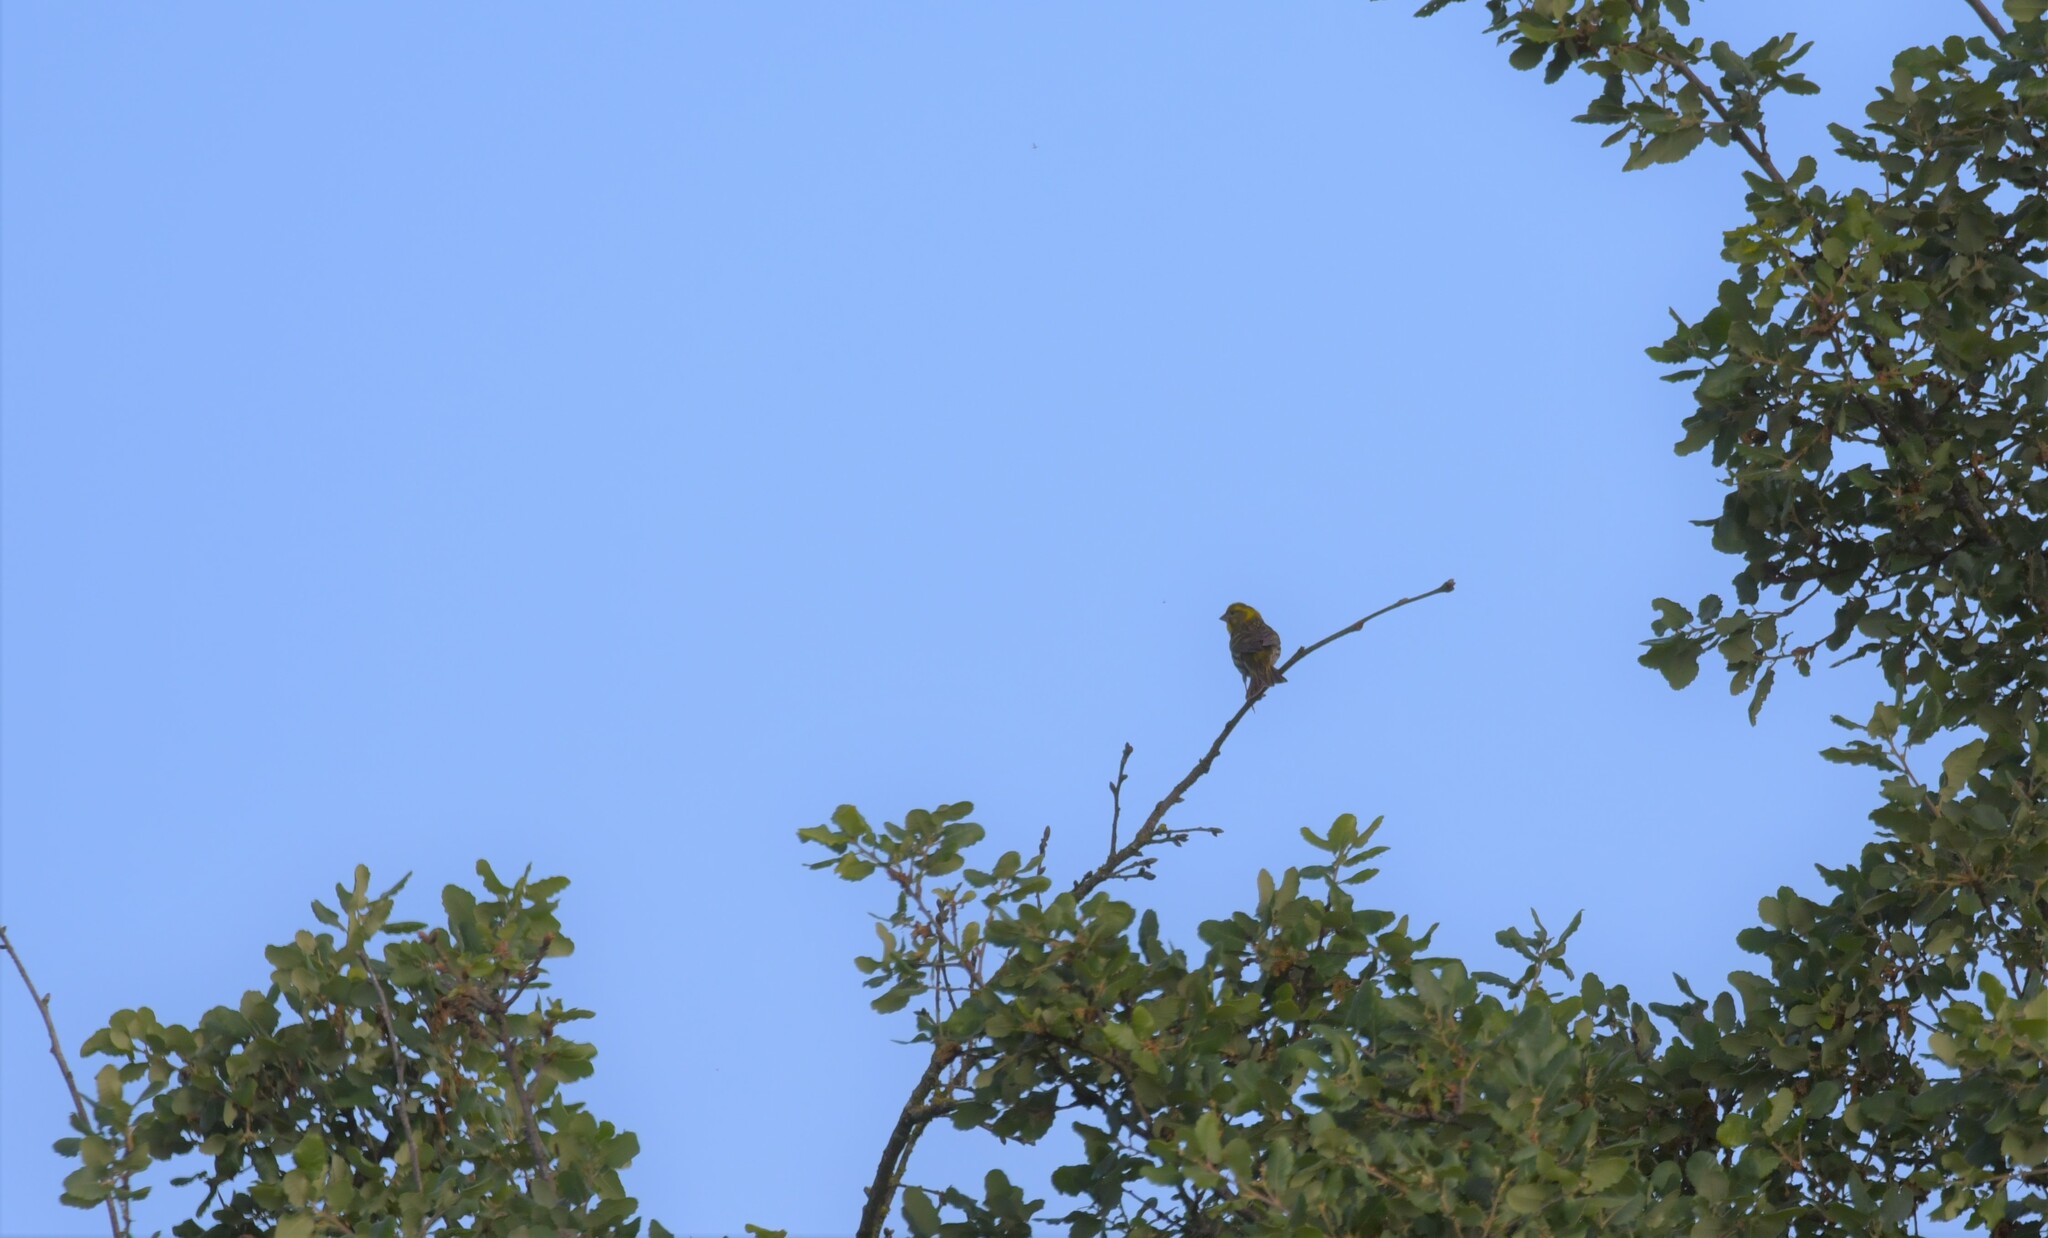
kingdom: Animalia
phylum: Chordata
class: Aves
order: Passeriformes
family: Fringillidae
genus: Serinus
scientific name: Serinus serinus
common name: European serin
